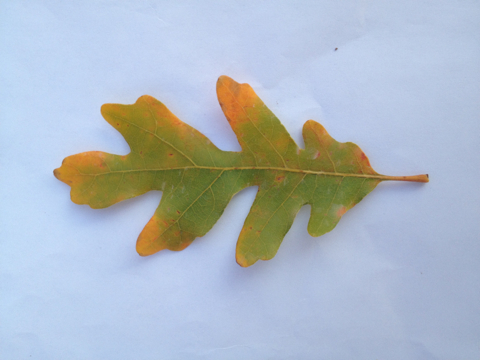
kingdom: Plantae
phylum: Tracheophyta
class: Magnoliopsida
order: Fagales
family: Fagaceae
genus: Quercus
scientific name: Quercus gambelii
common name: Gambel oak
